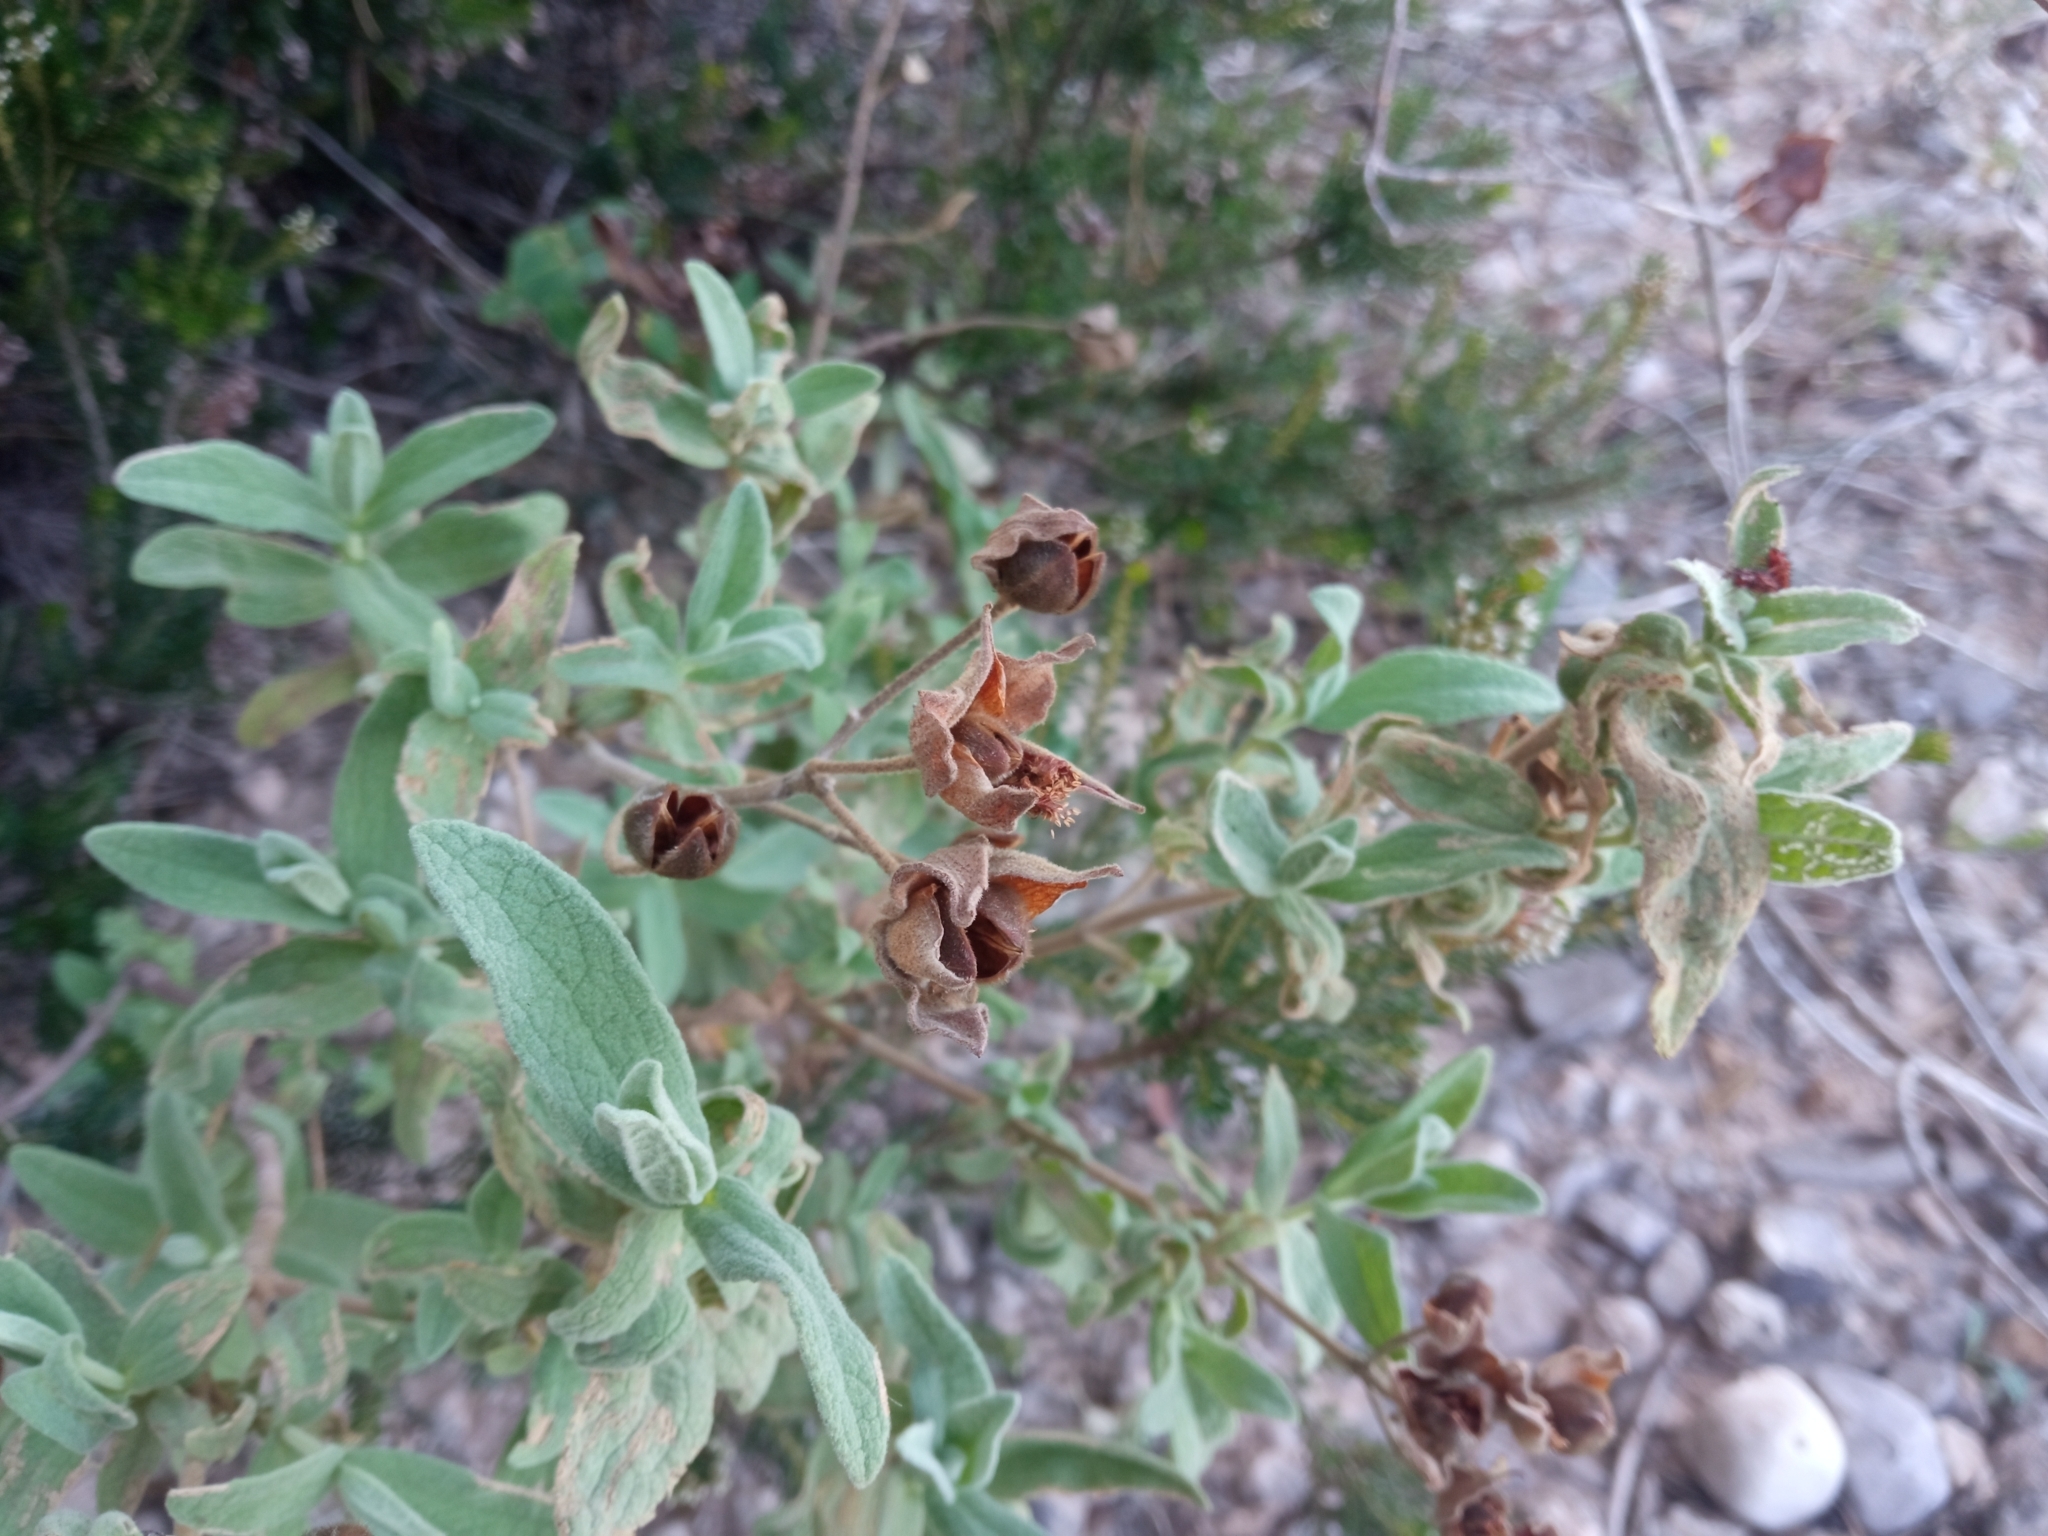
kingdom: Plantae
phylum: Tracheophyta
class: Magnoliopsida
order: Malvales
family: Cistaceae
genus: Cistus
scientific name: Cistus albidus
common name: White-leaf rock-rose
